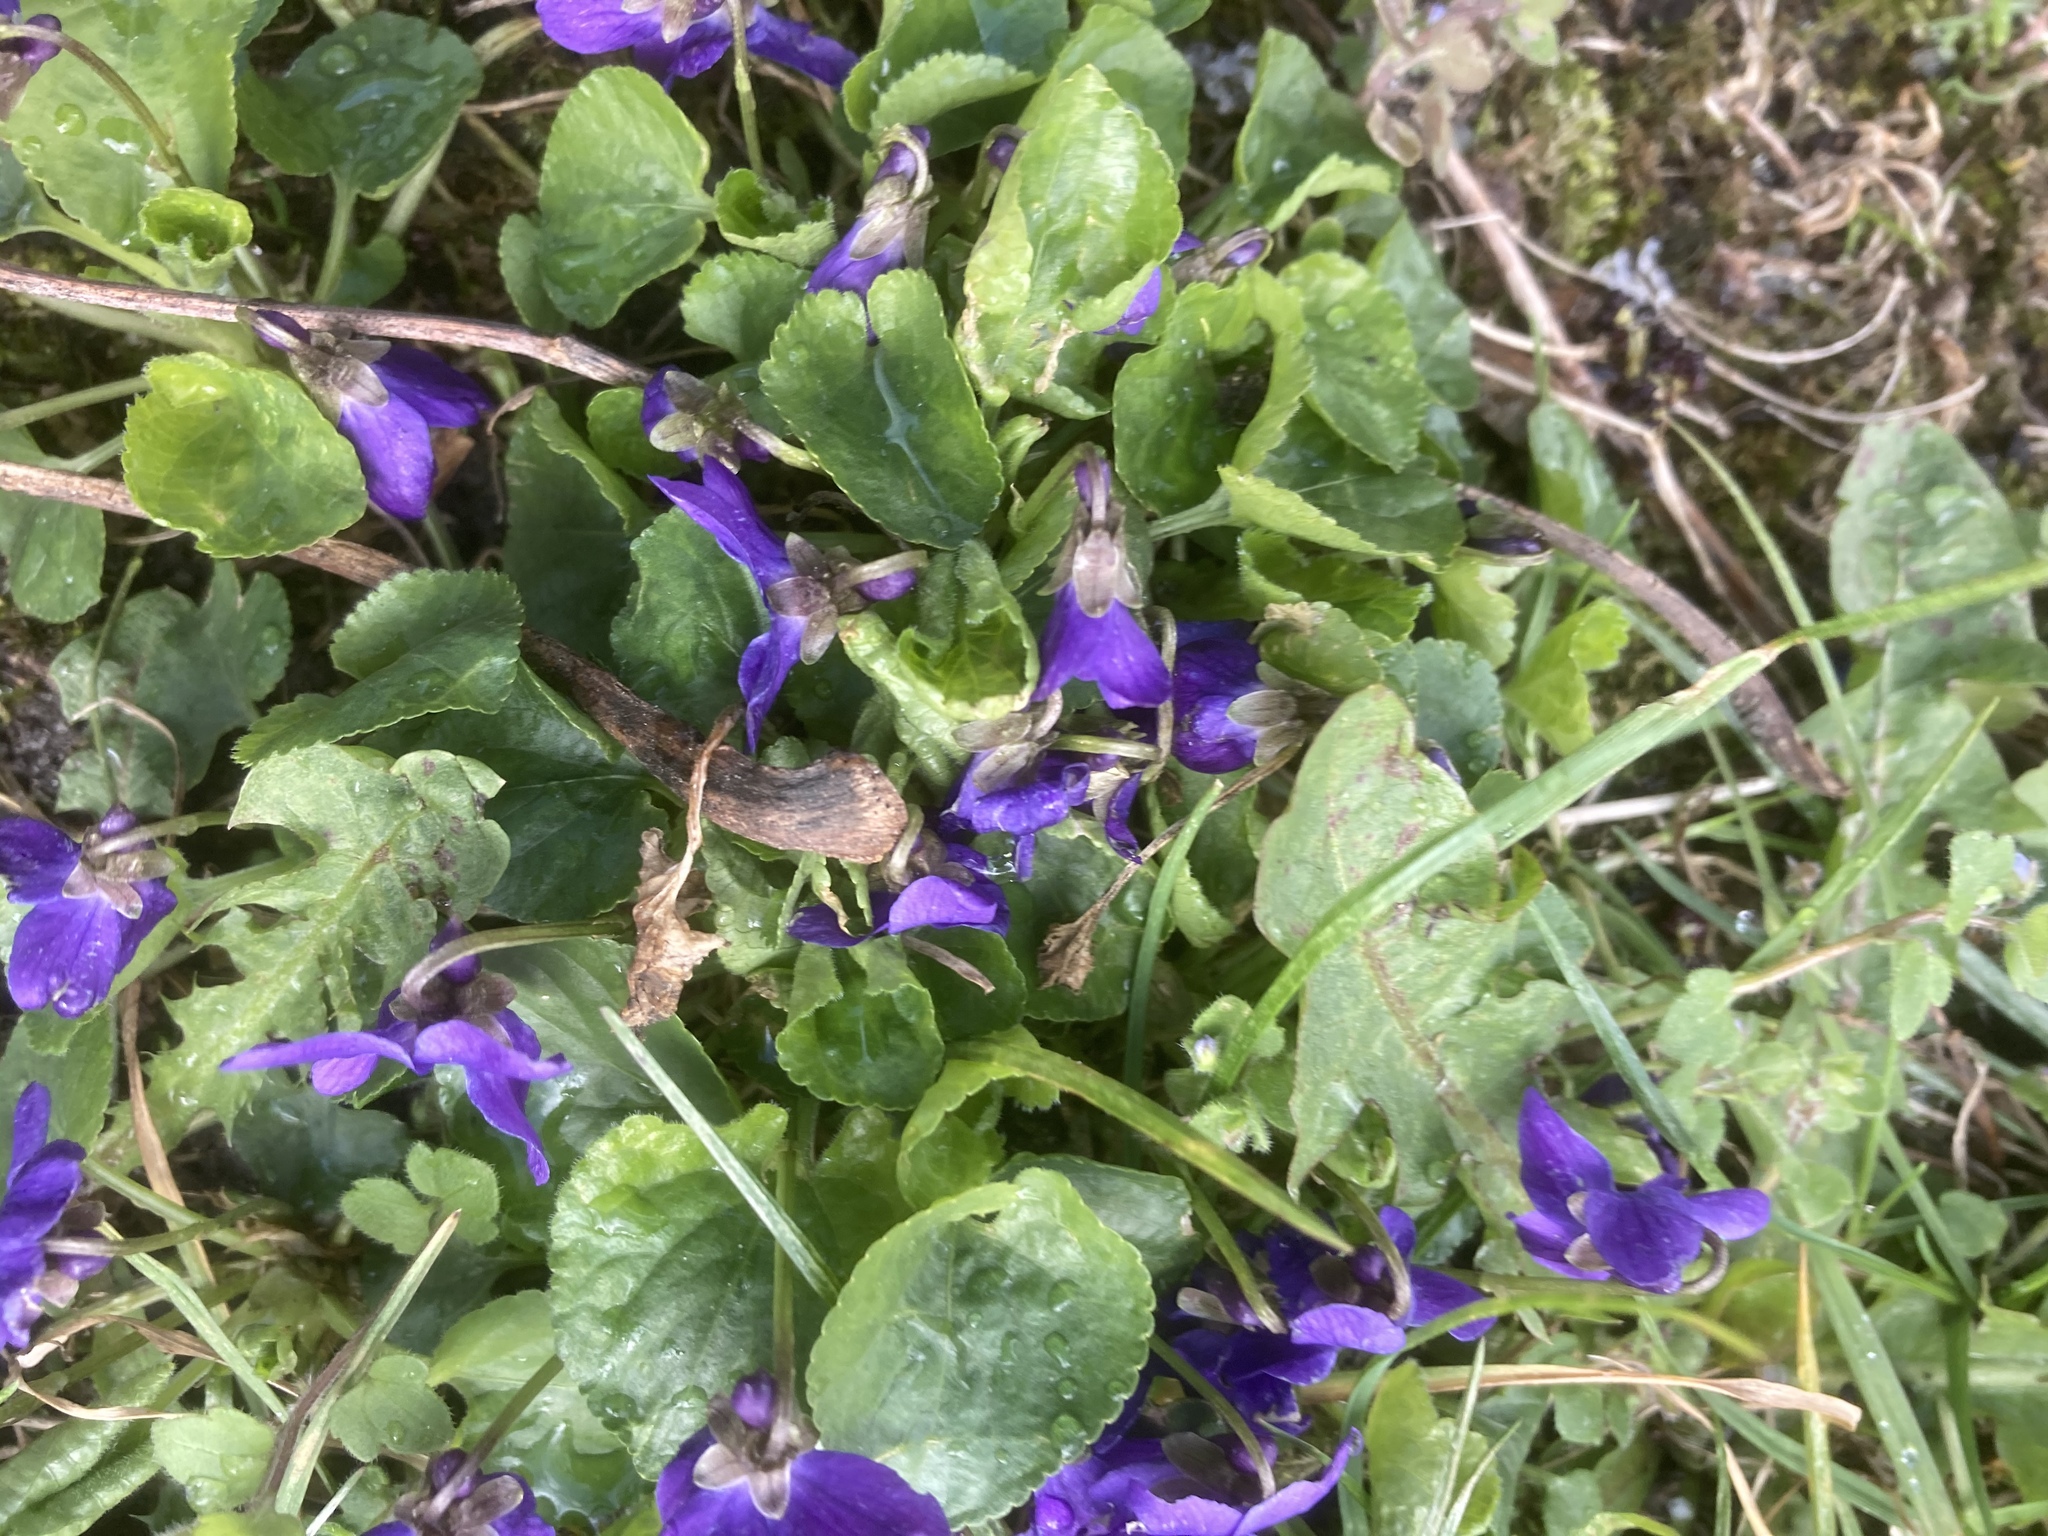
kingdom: Plantae
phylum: Tracheophyta
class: Magnoliopsida
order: Malpighiales
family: Violaceae
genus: Viola
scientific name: Viola odorata
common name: Sweet violet
